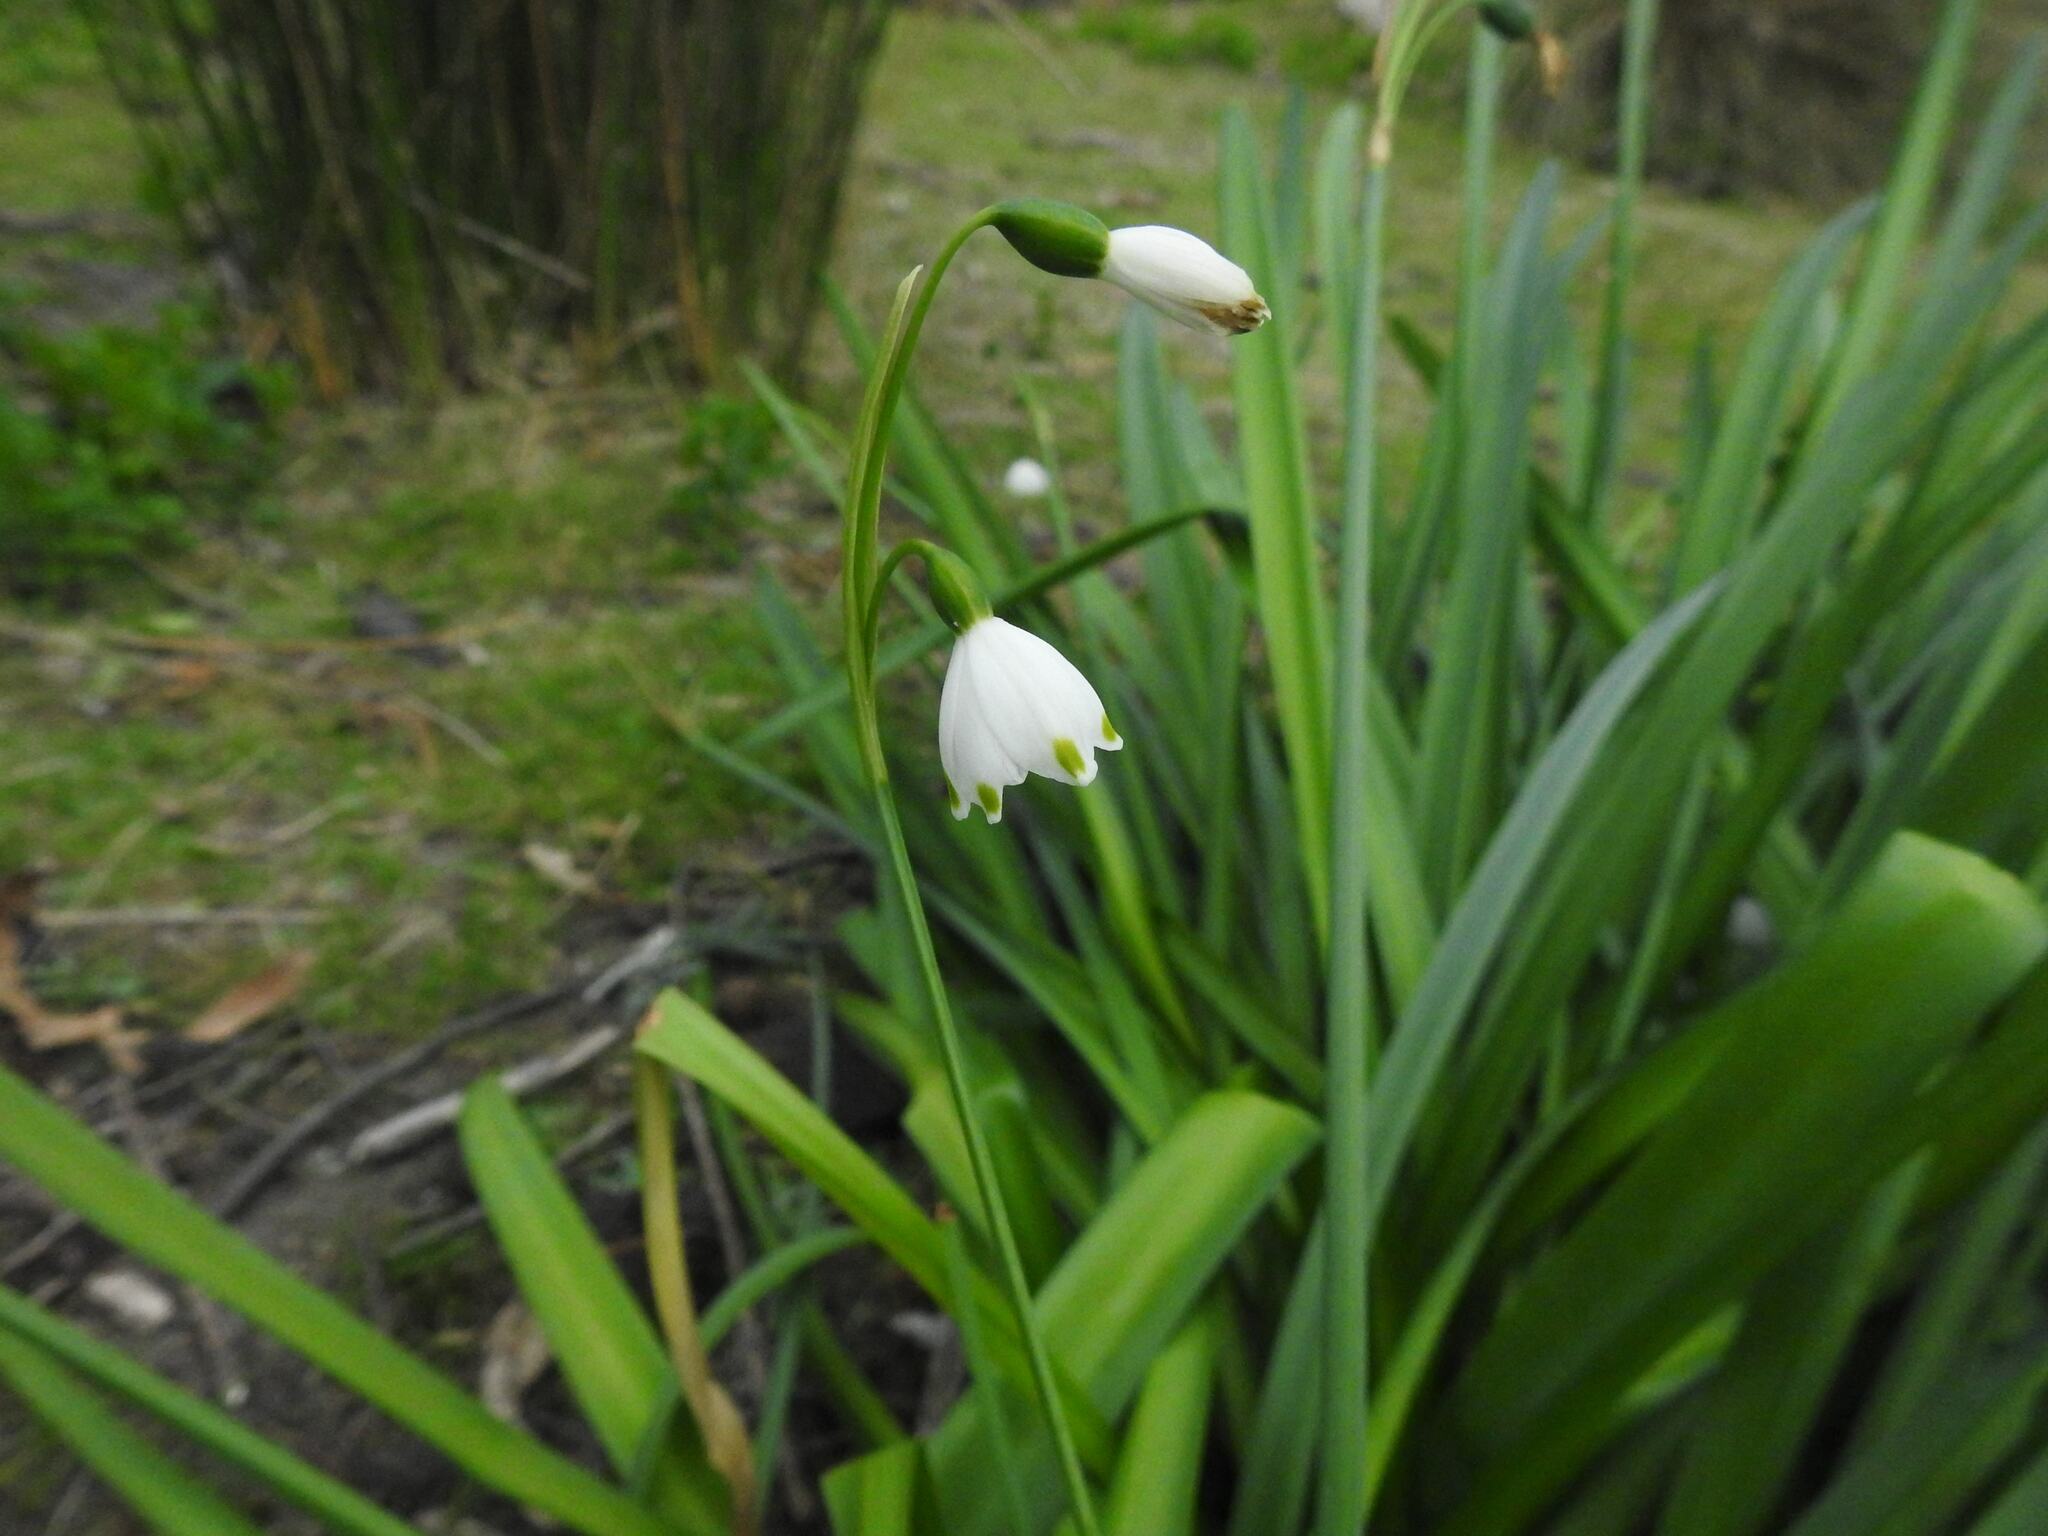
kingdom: Plantae
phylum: Tracheophyta
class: Liliopsida
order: Asparagales
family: Amaryllidaceae
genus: Leucojum
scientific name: Leucojum aestivum
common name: Summer snowflake
